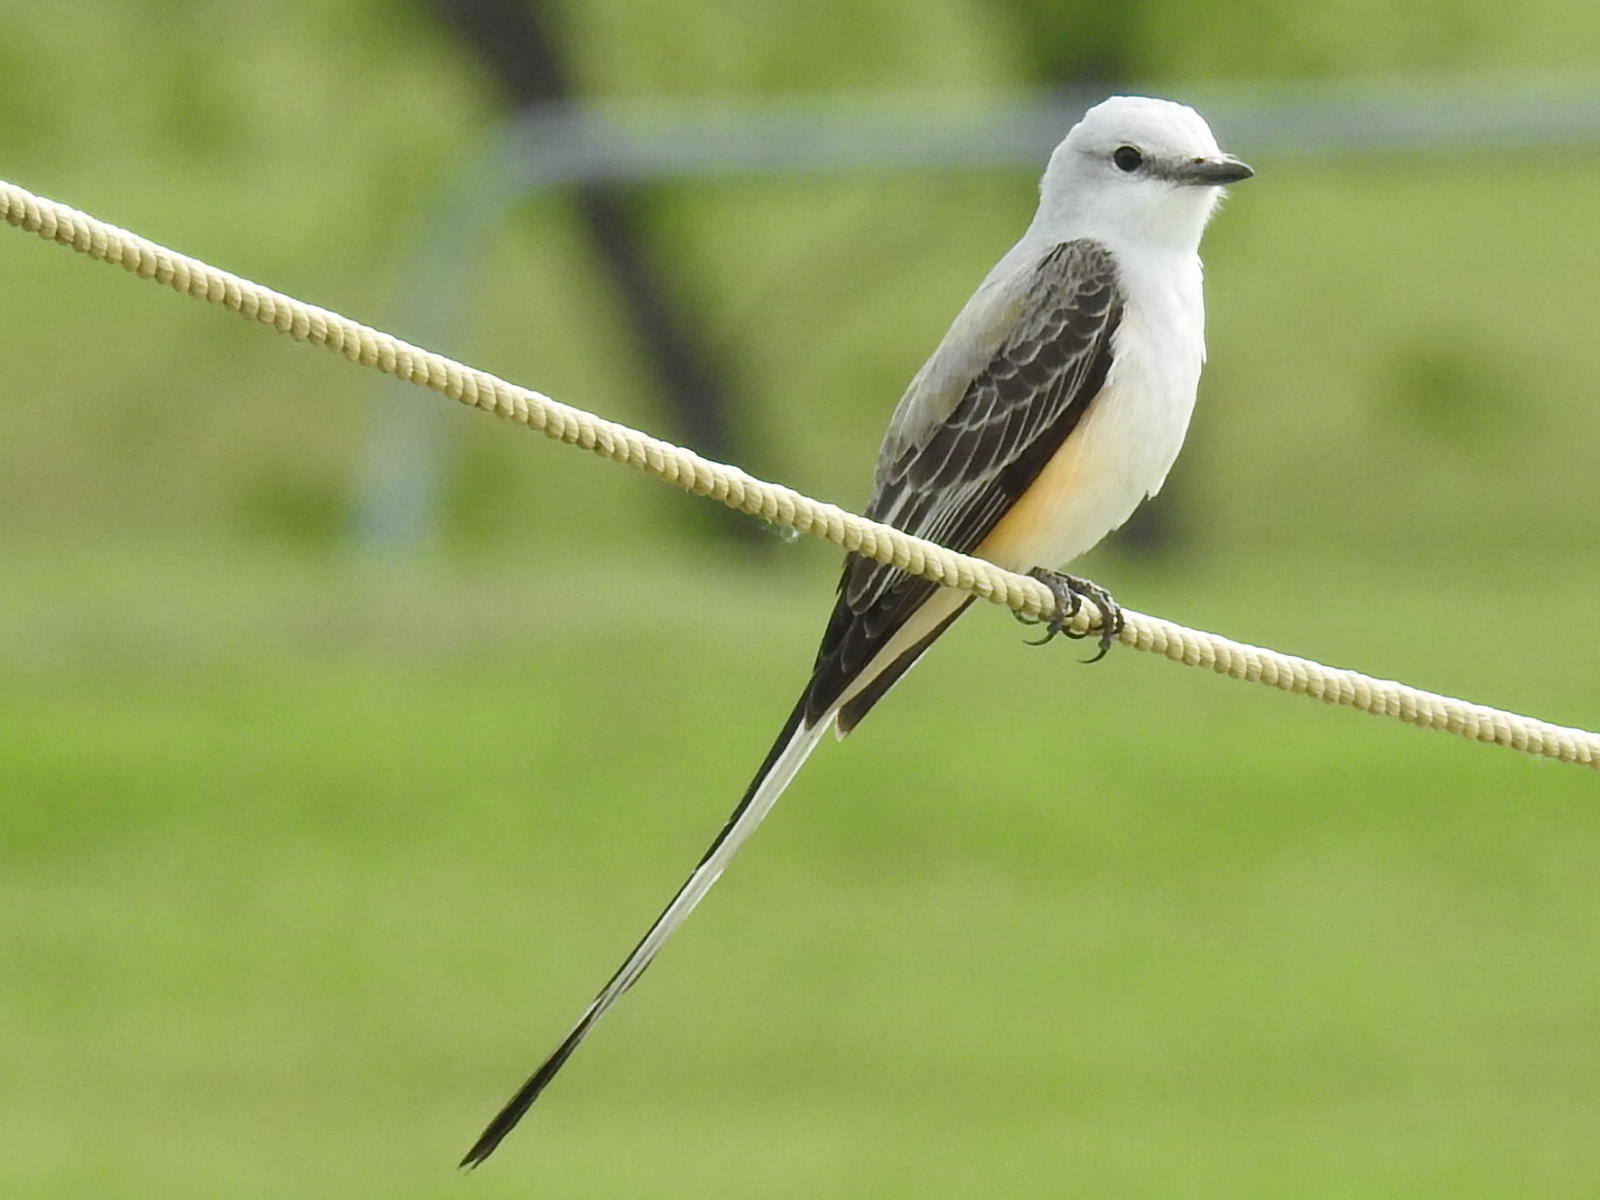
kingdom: Animalia
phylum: Chordata
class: Aves
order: Passeriformes
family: Tyrannidae
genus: Tyrannus
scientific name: Tyrannus forficatus
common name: Scissor-tailed flycatcher
